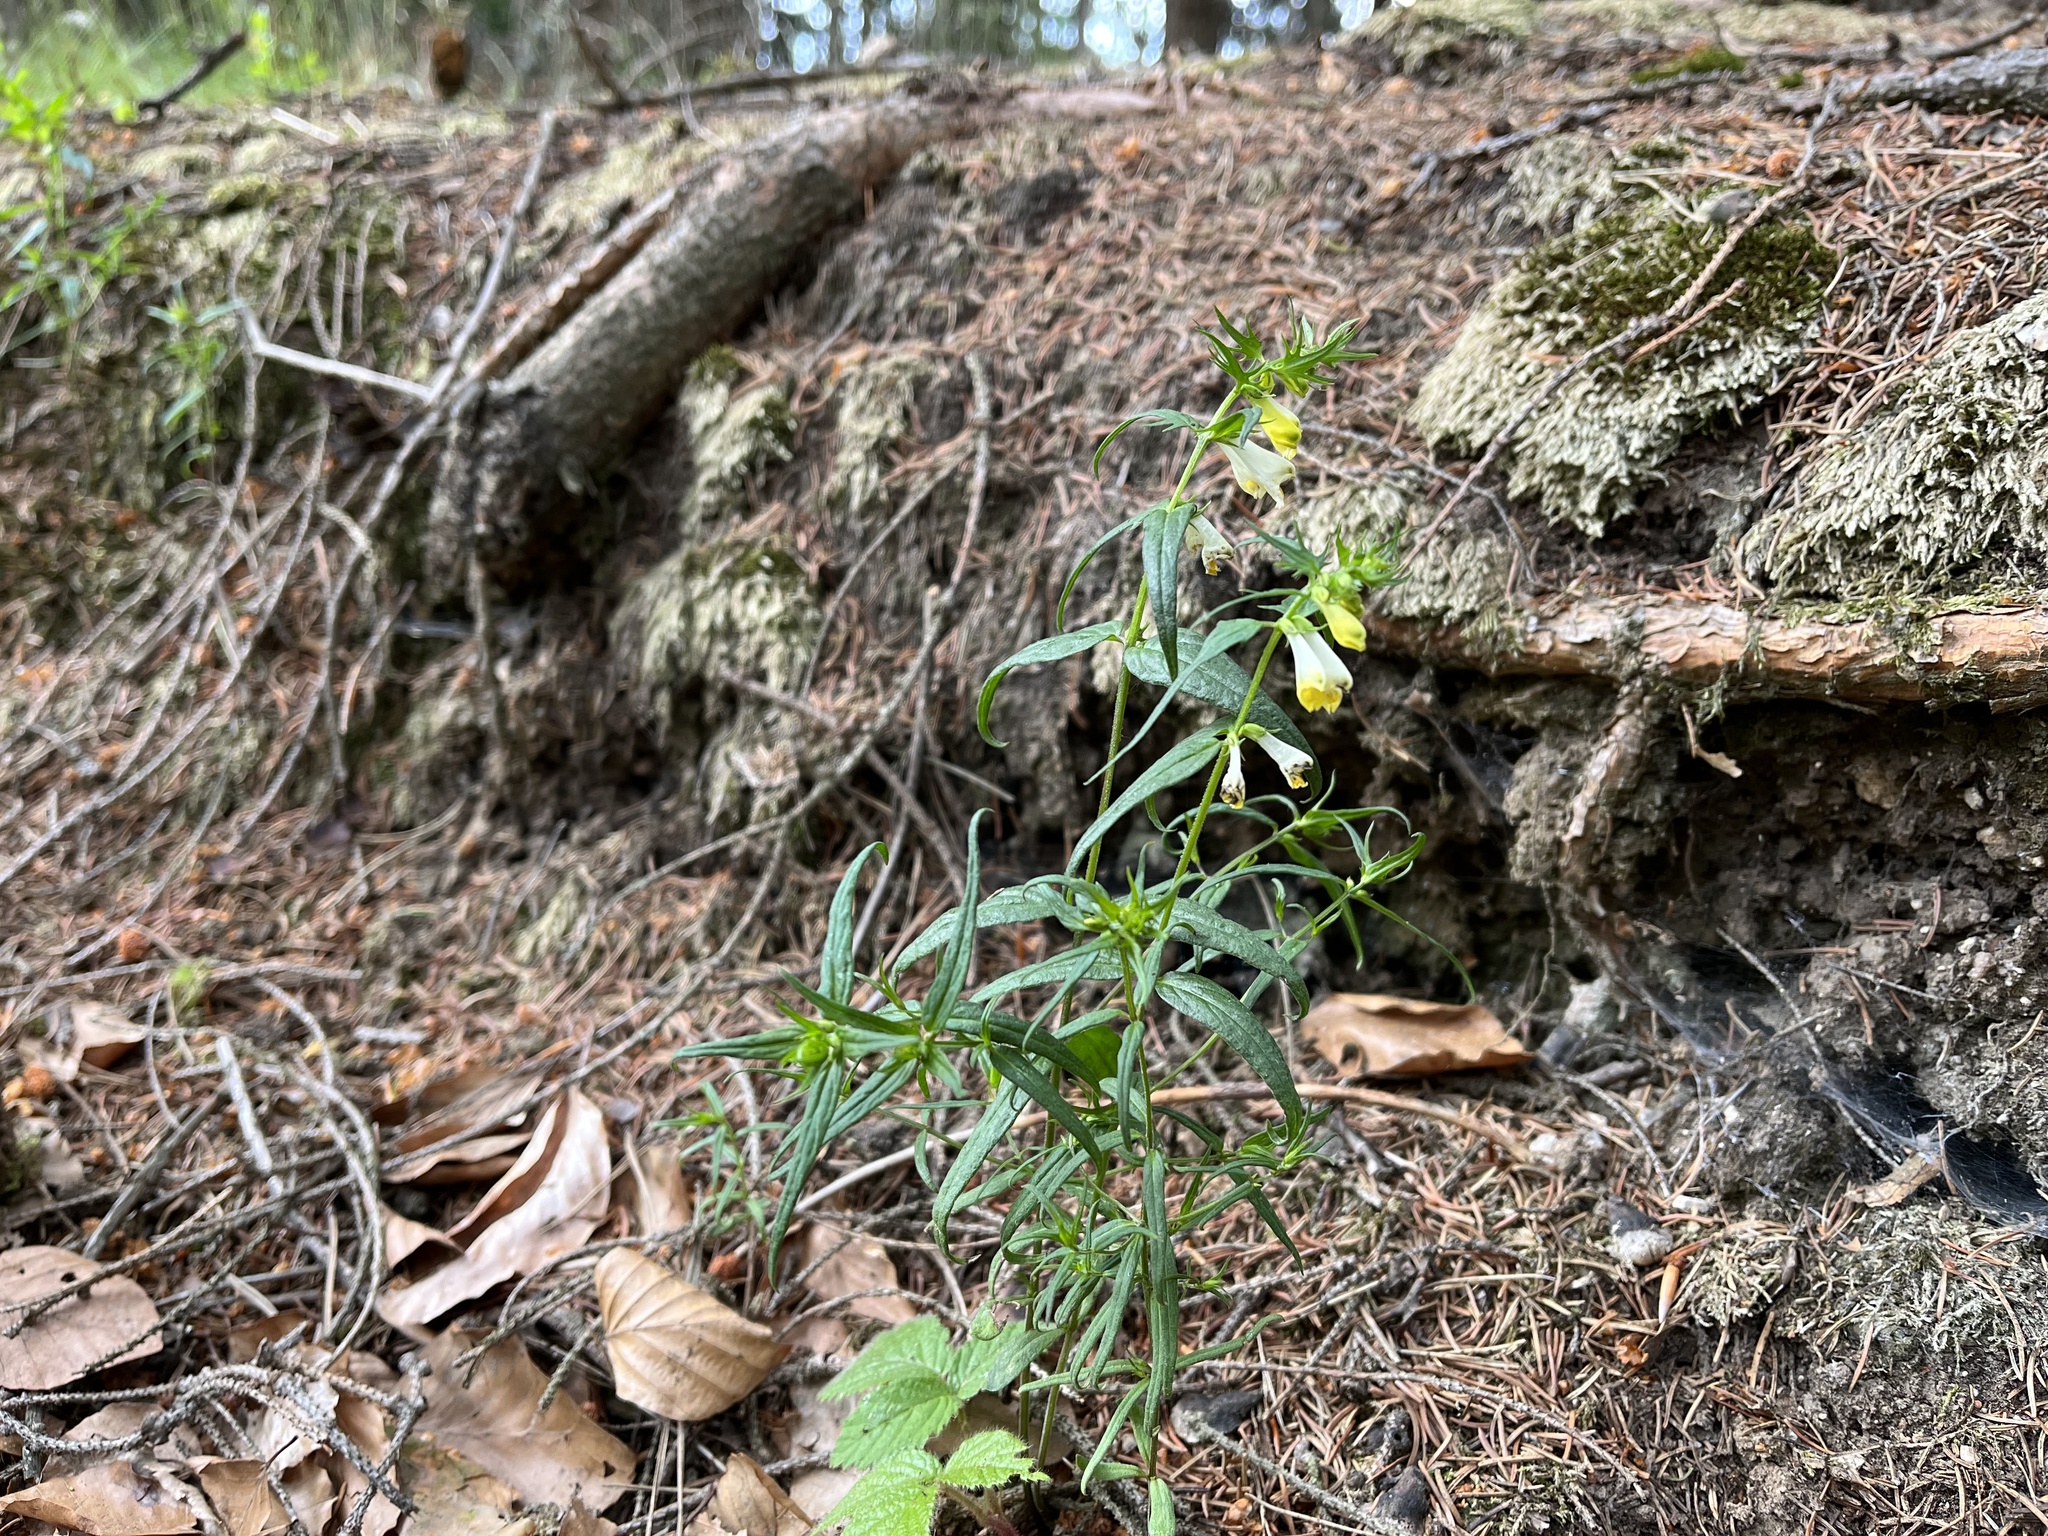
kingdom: Plantae
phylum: Tracheophyta
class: Magnoliopsida
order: Lamiales
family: Orobanchaceae
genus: Melampyrum
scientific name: Melampyrum pratense
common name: Common cow-wheat
